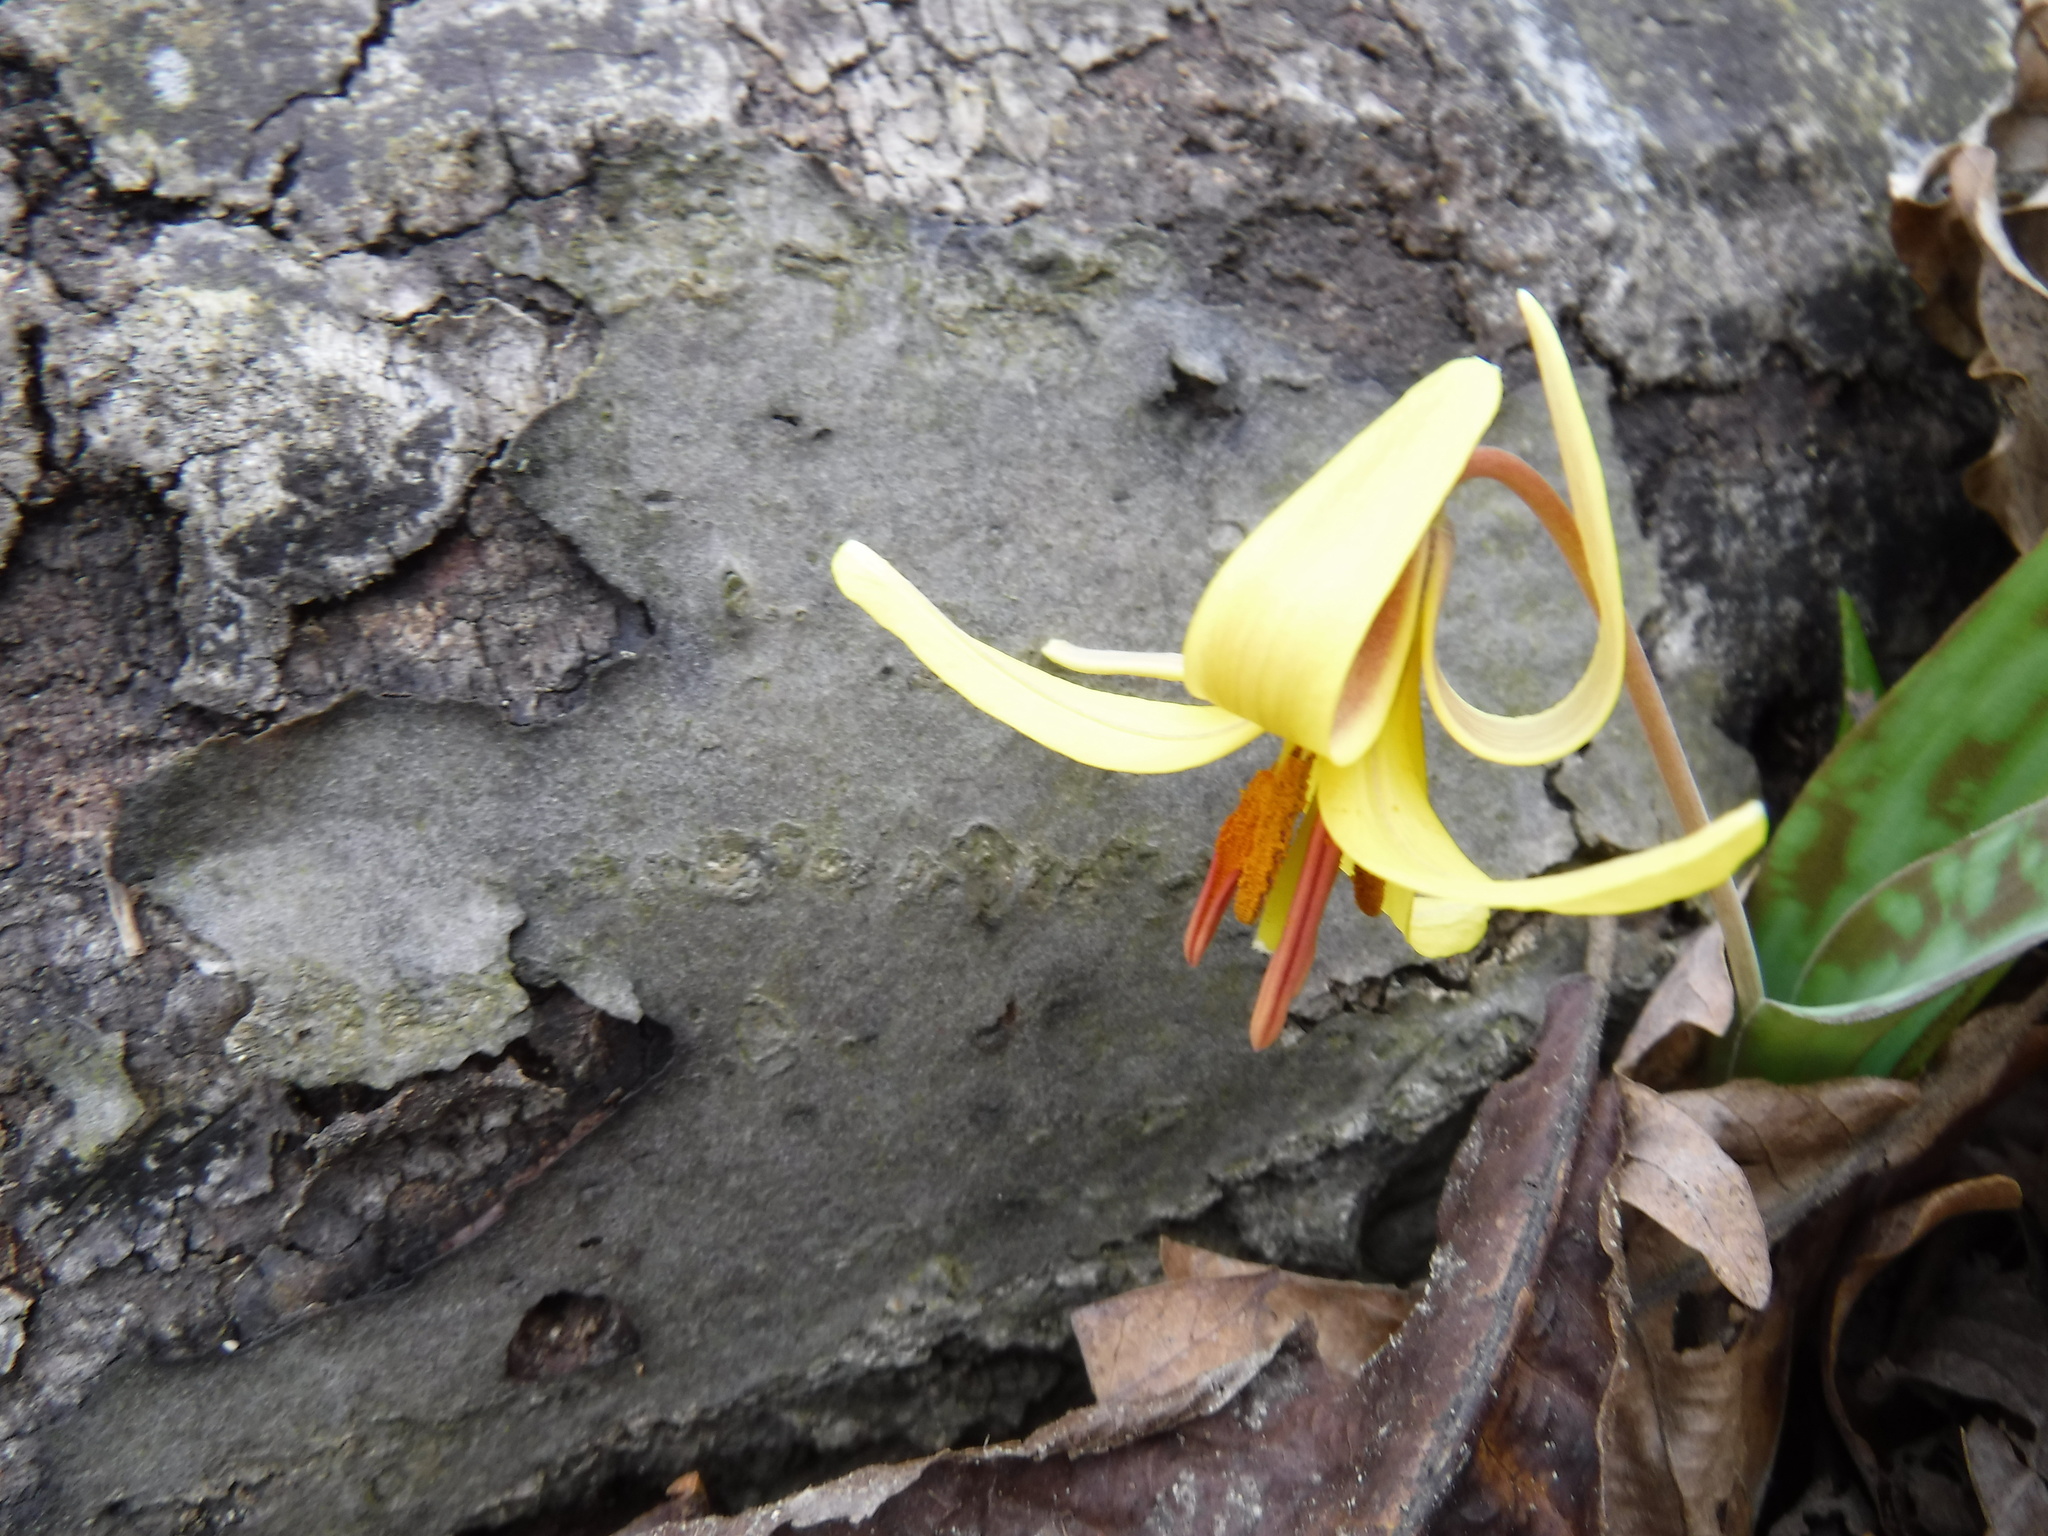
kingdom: Plantae
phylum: Tracheophyta
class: Liliopsida
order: Liliales
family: Liliaceae
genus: Erythronium
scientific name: Erythronium americanum
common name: Yellow adder's-tongue
